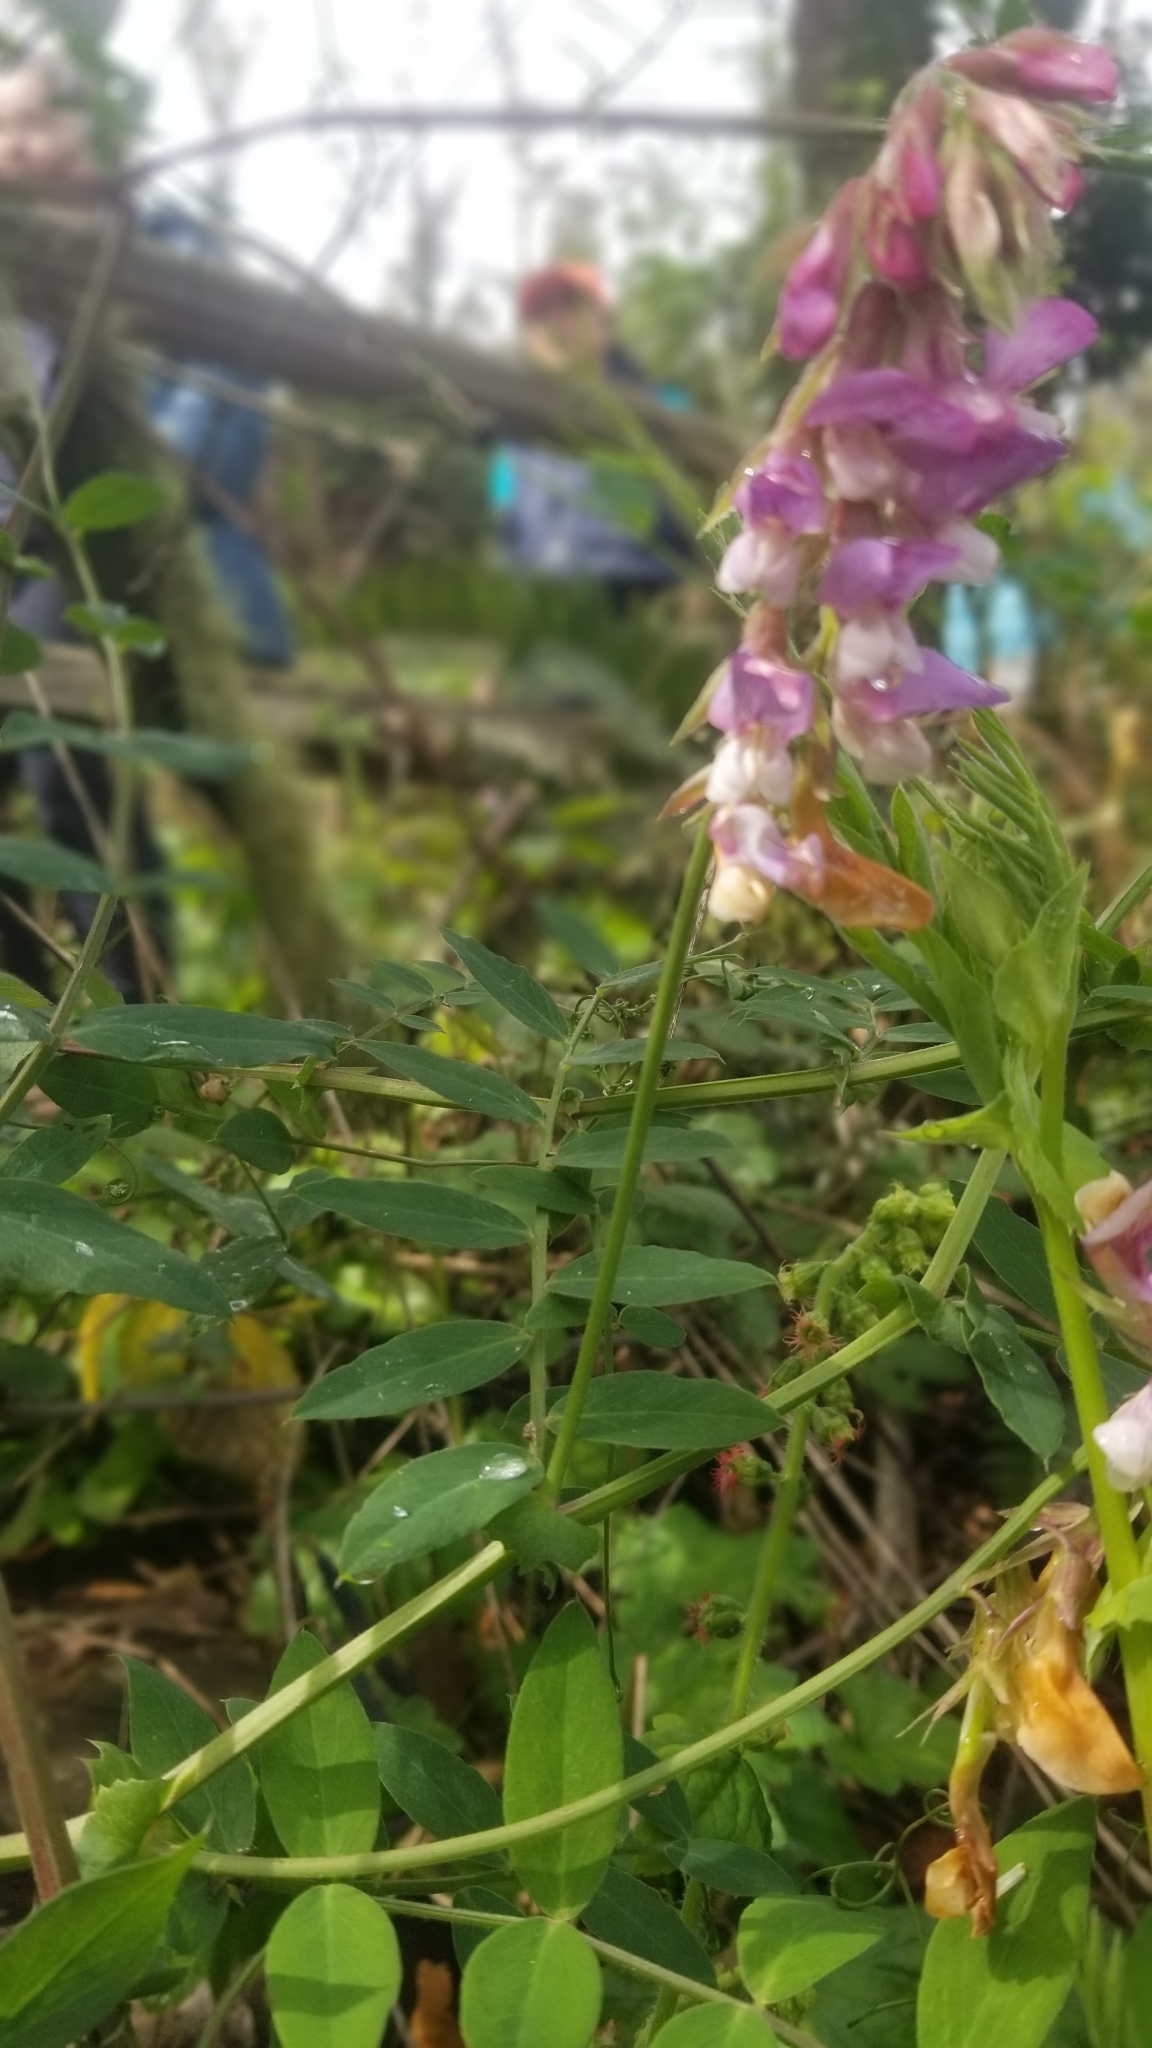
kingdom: Plantae
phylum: Tracheophyta
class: Magnoliopsida
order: Fabales
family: Fabaceae
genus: Lathyrus
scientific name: Lathyrus vestitus
